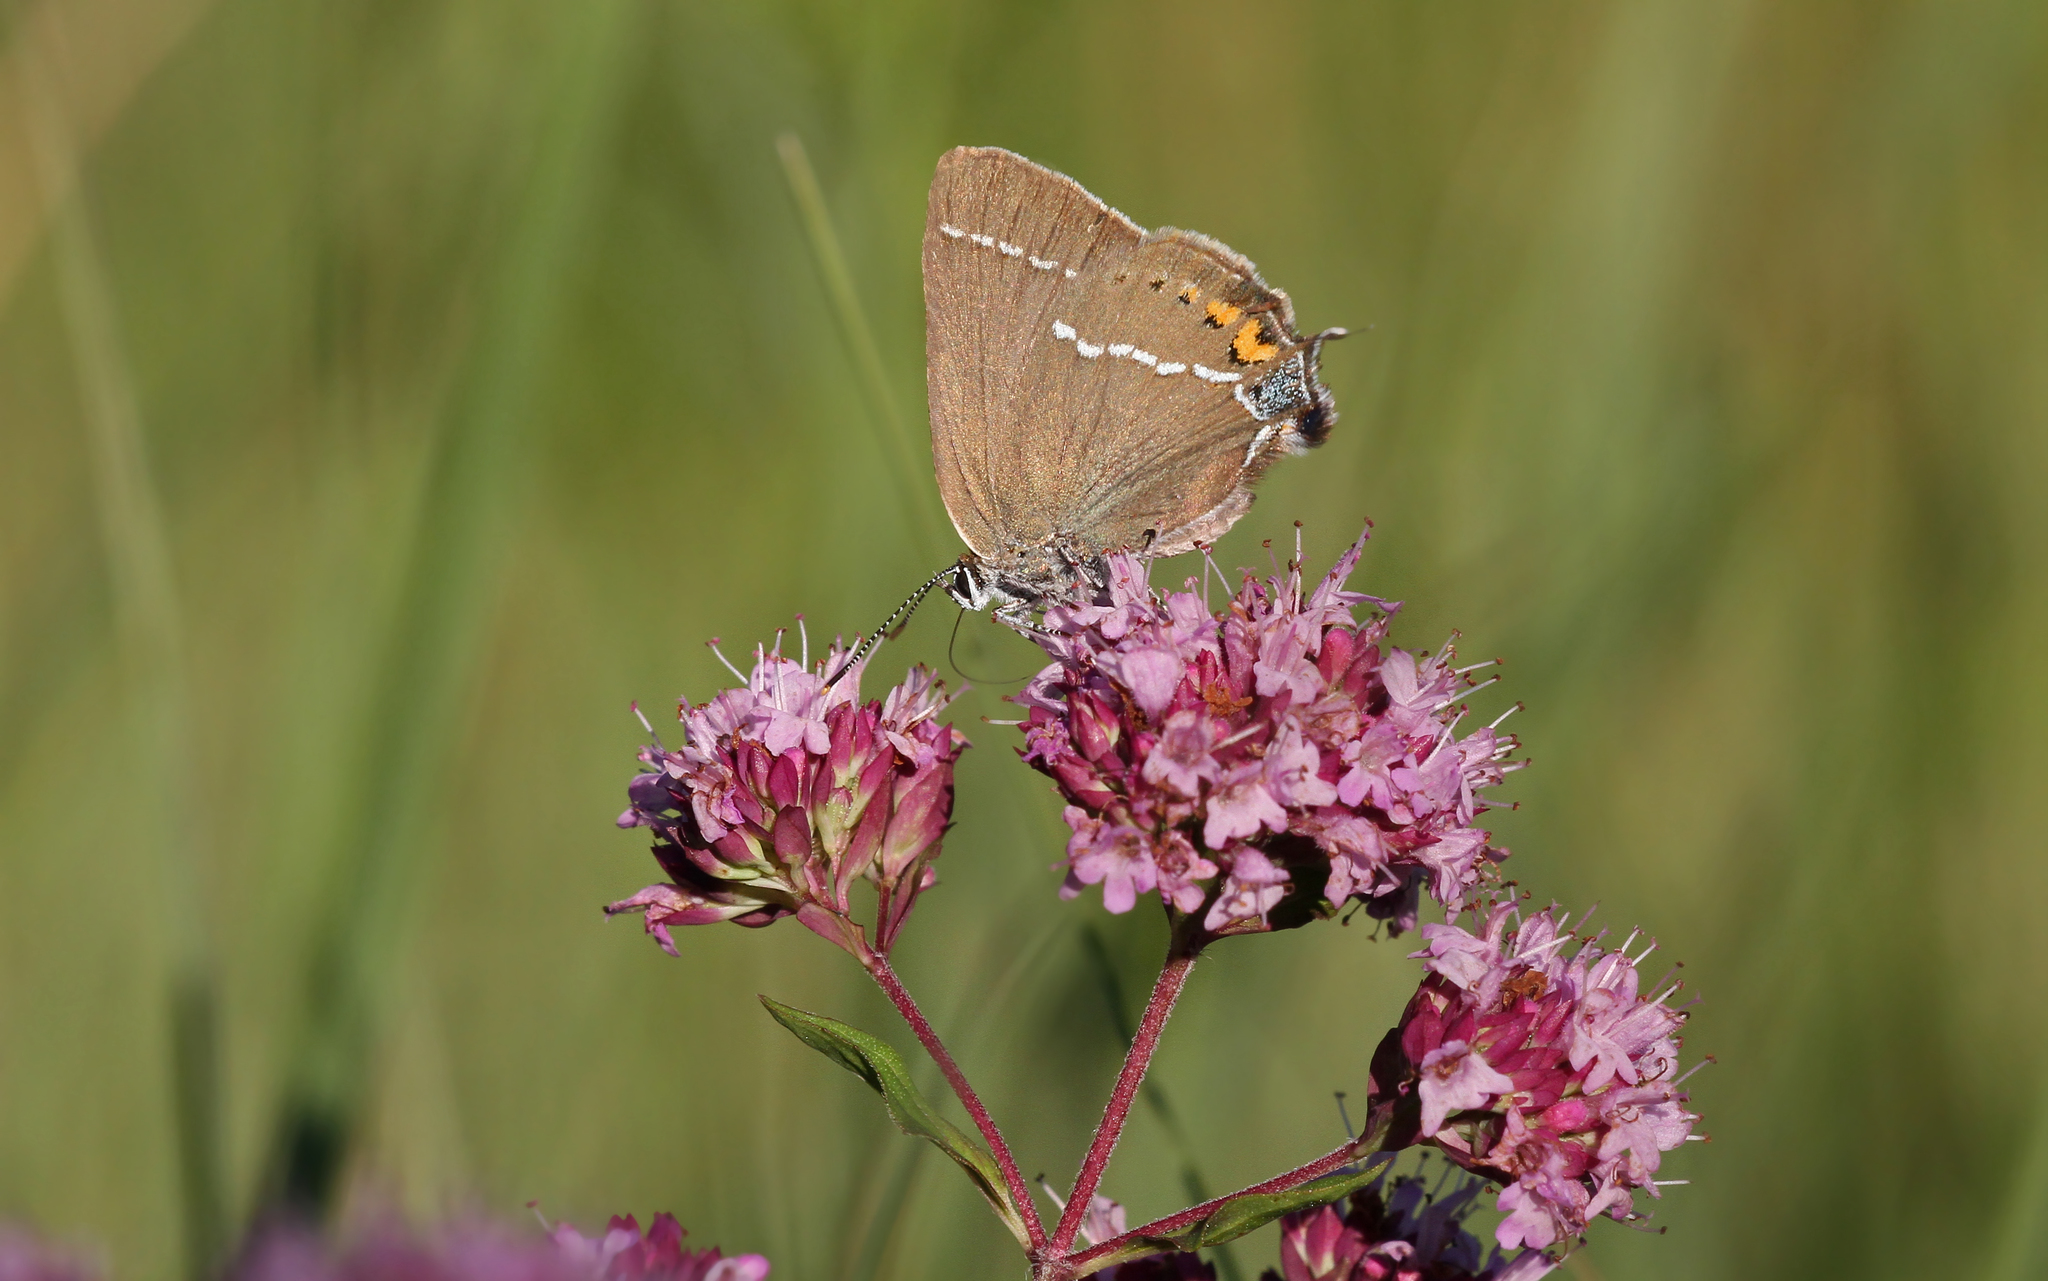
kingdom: Animalia
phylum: Arthropoda
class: Insecta
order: Lepidoptera
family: Lycaenidae
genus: Tuttiola
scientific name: Tuttiola spini
